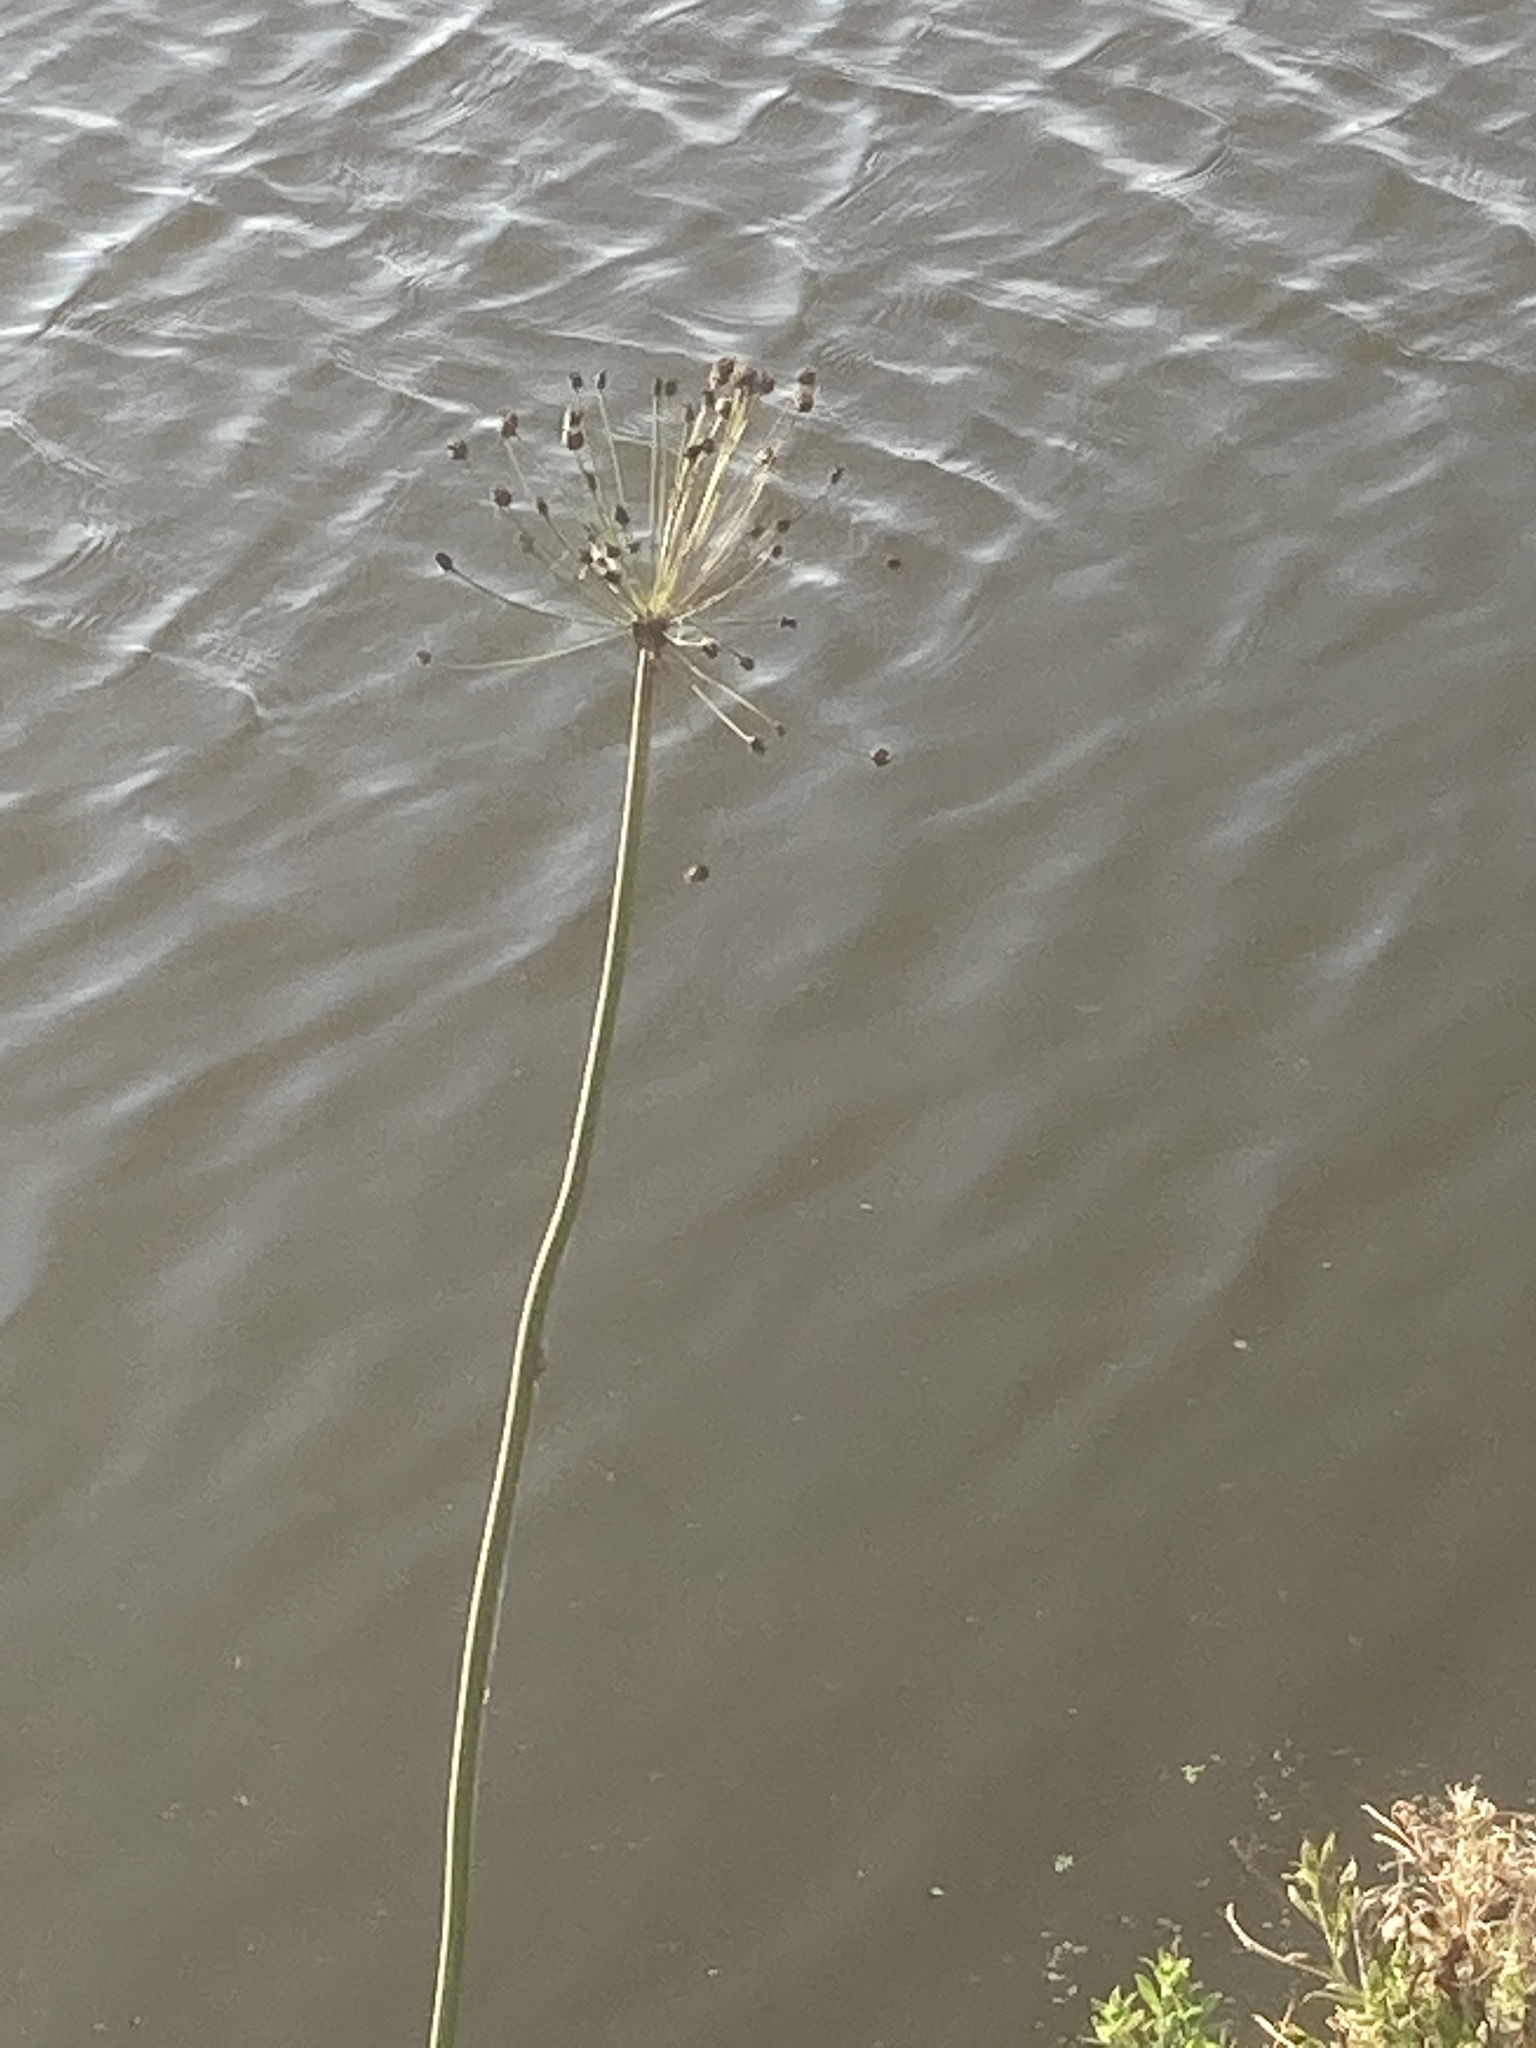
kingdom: Plantae
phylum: Tracheophyta
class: Liliopsida
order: Alismatales
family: Butomaceae
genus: Butomus
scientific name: Butomus umbellatus
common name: Flowering-rush
